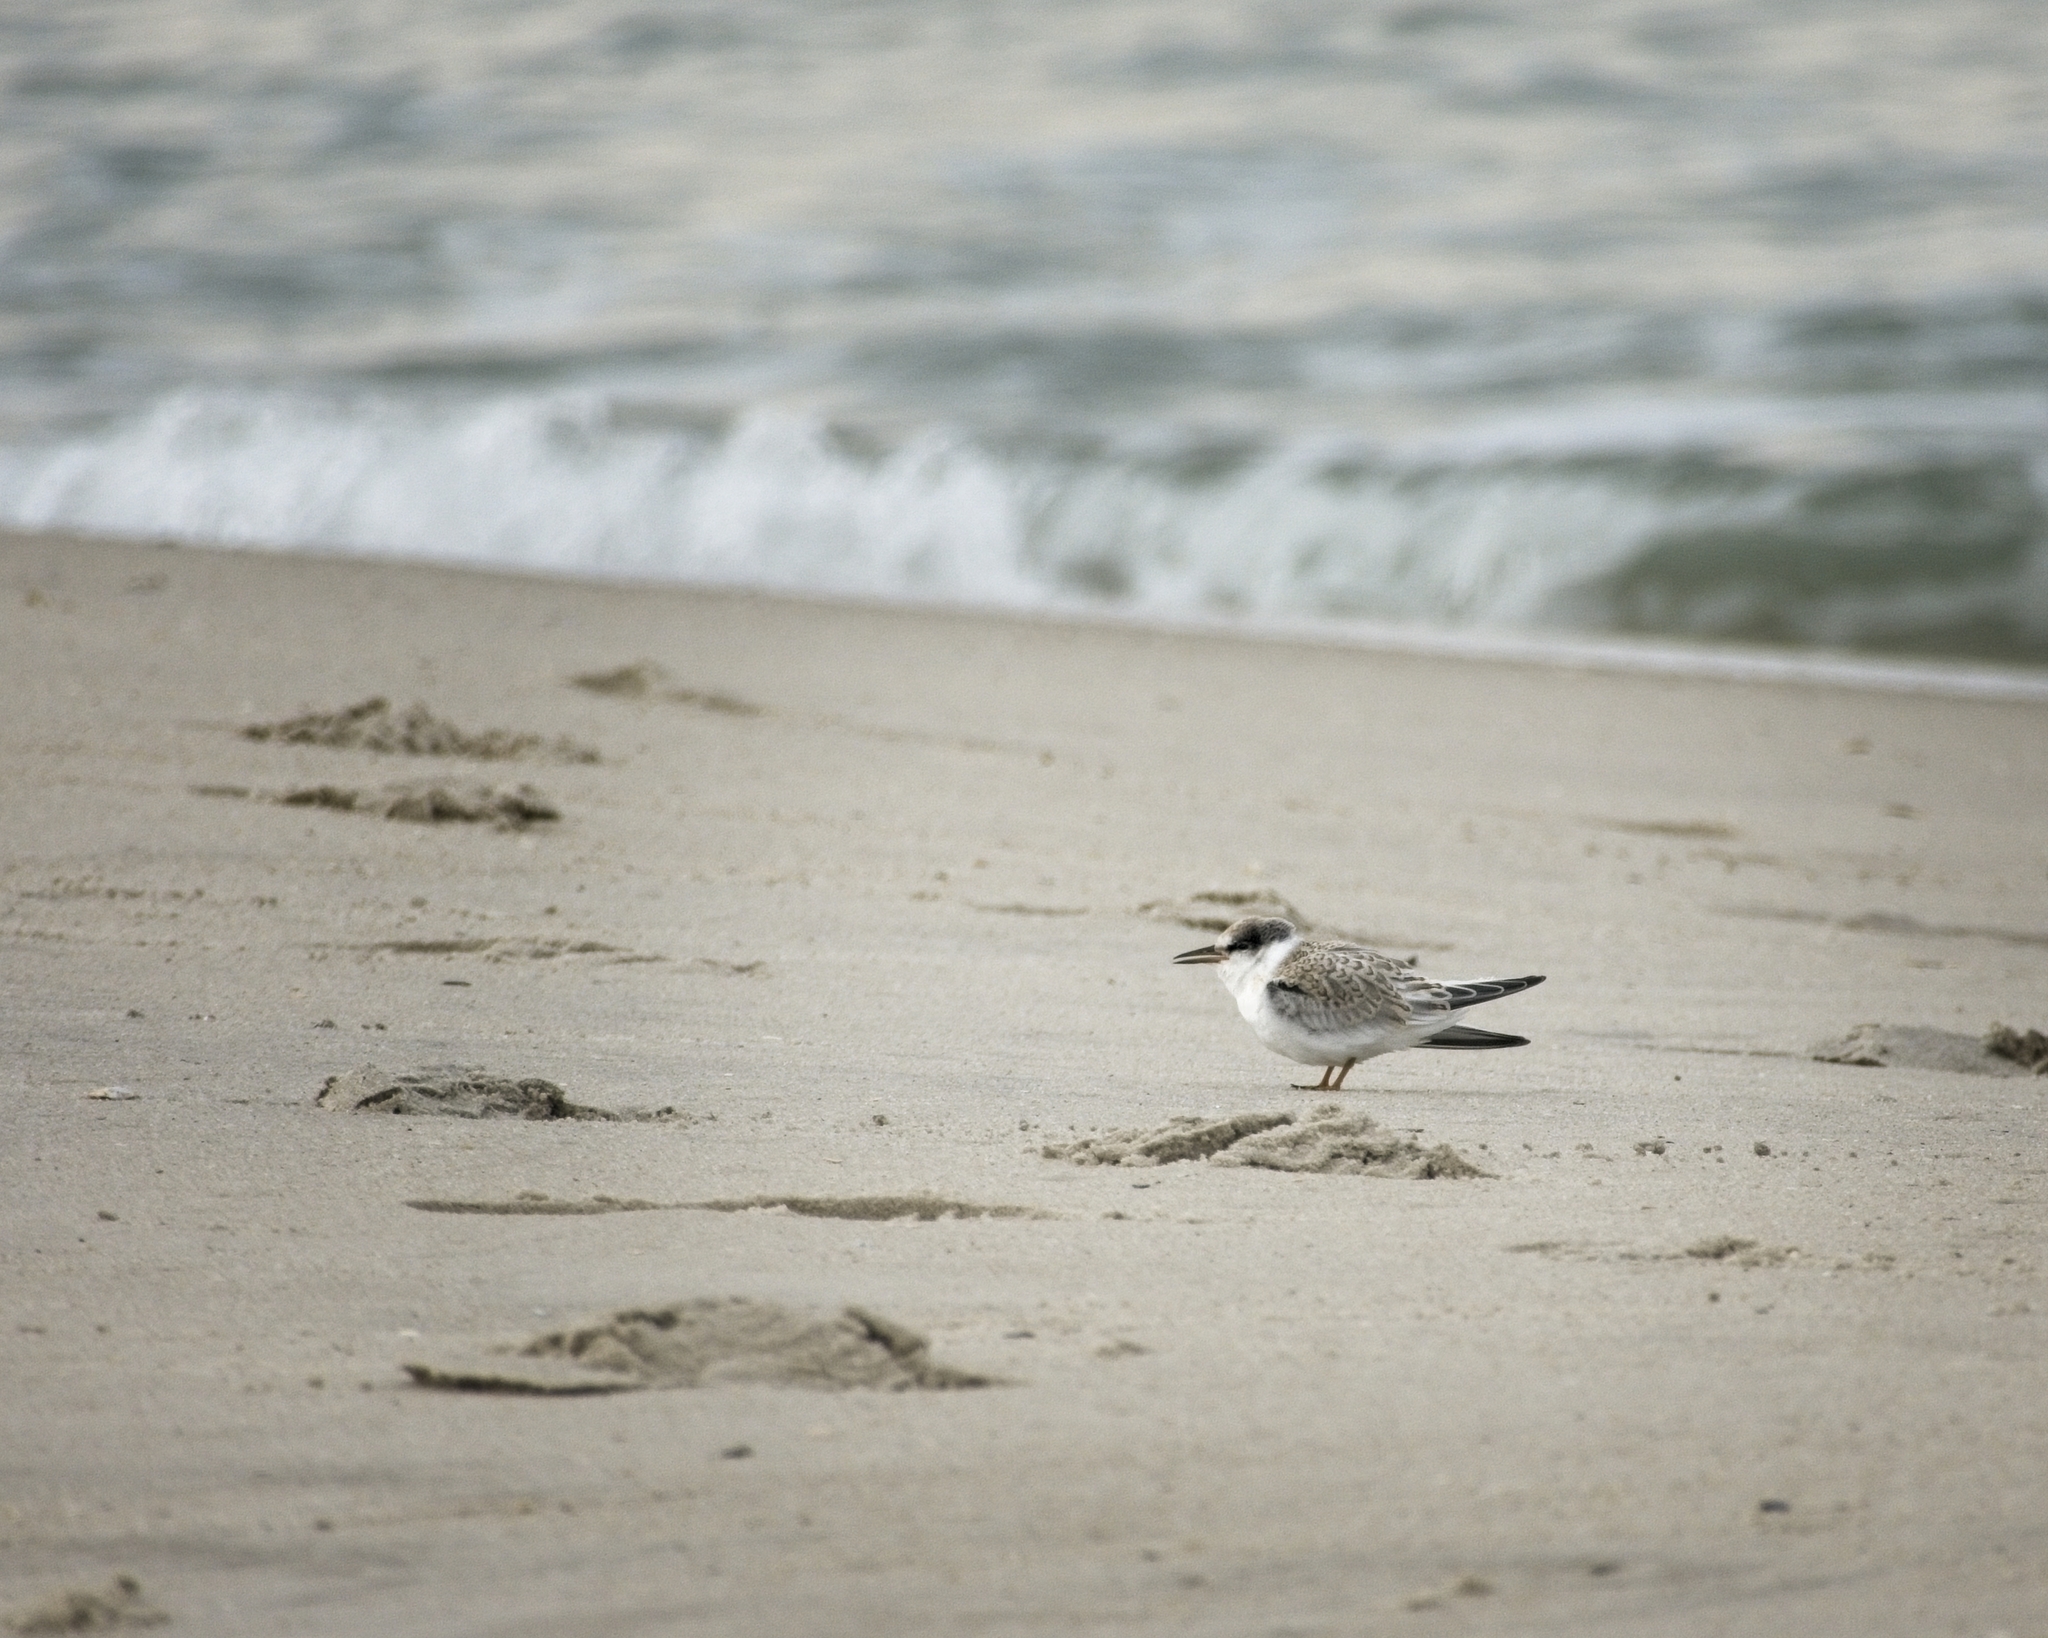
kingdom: Animalia
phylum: Chordata
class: Aves
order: Charadriiformes
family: Laridae
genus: Sternula
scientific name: Sternula antillarum
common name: Least tern
